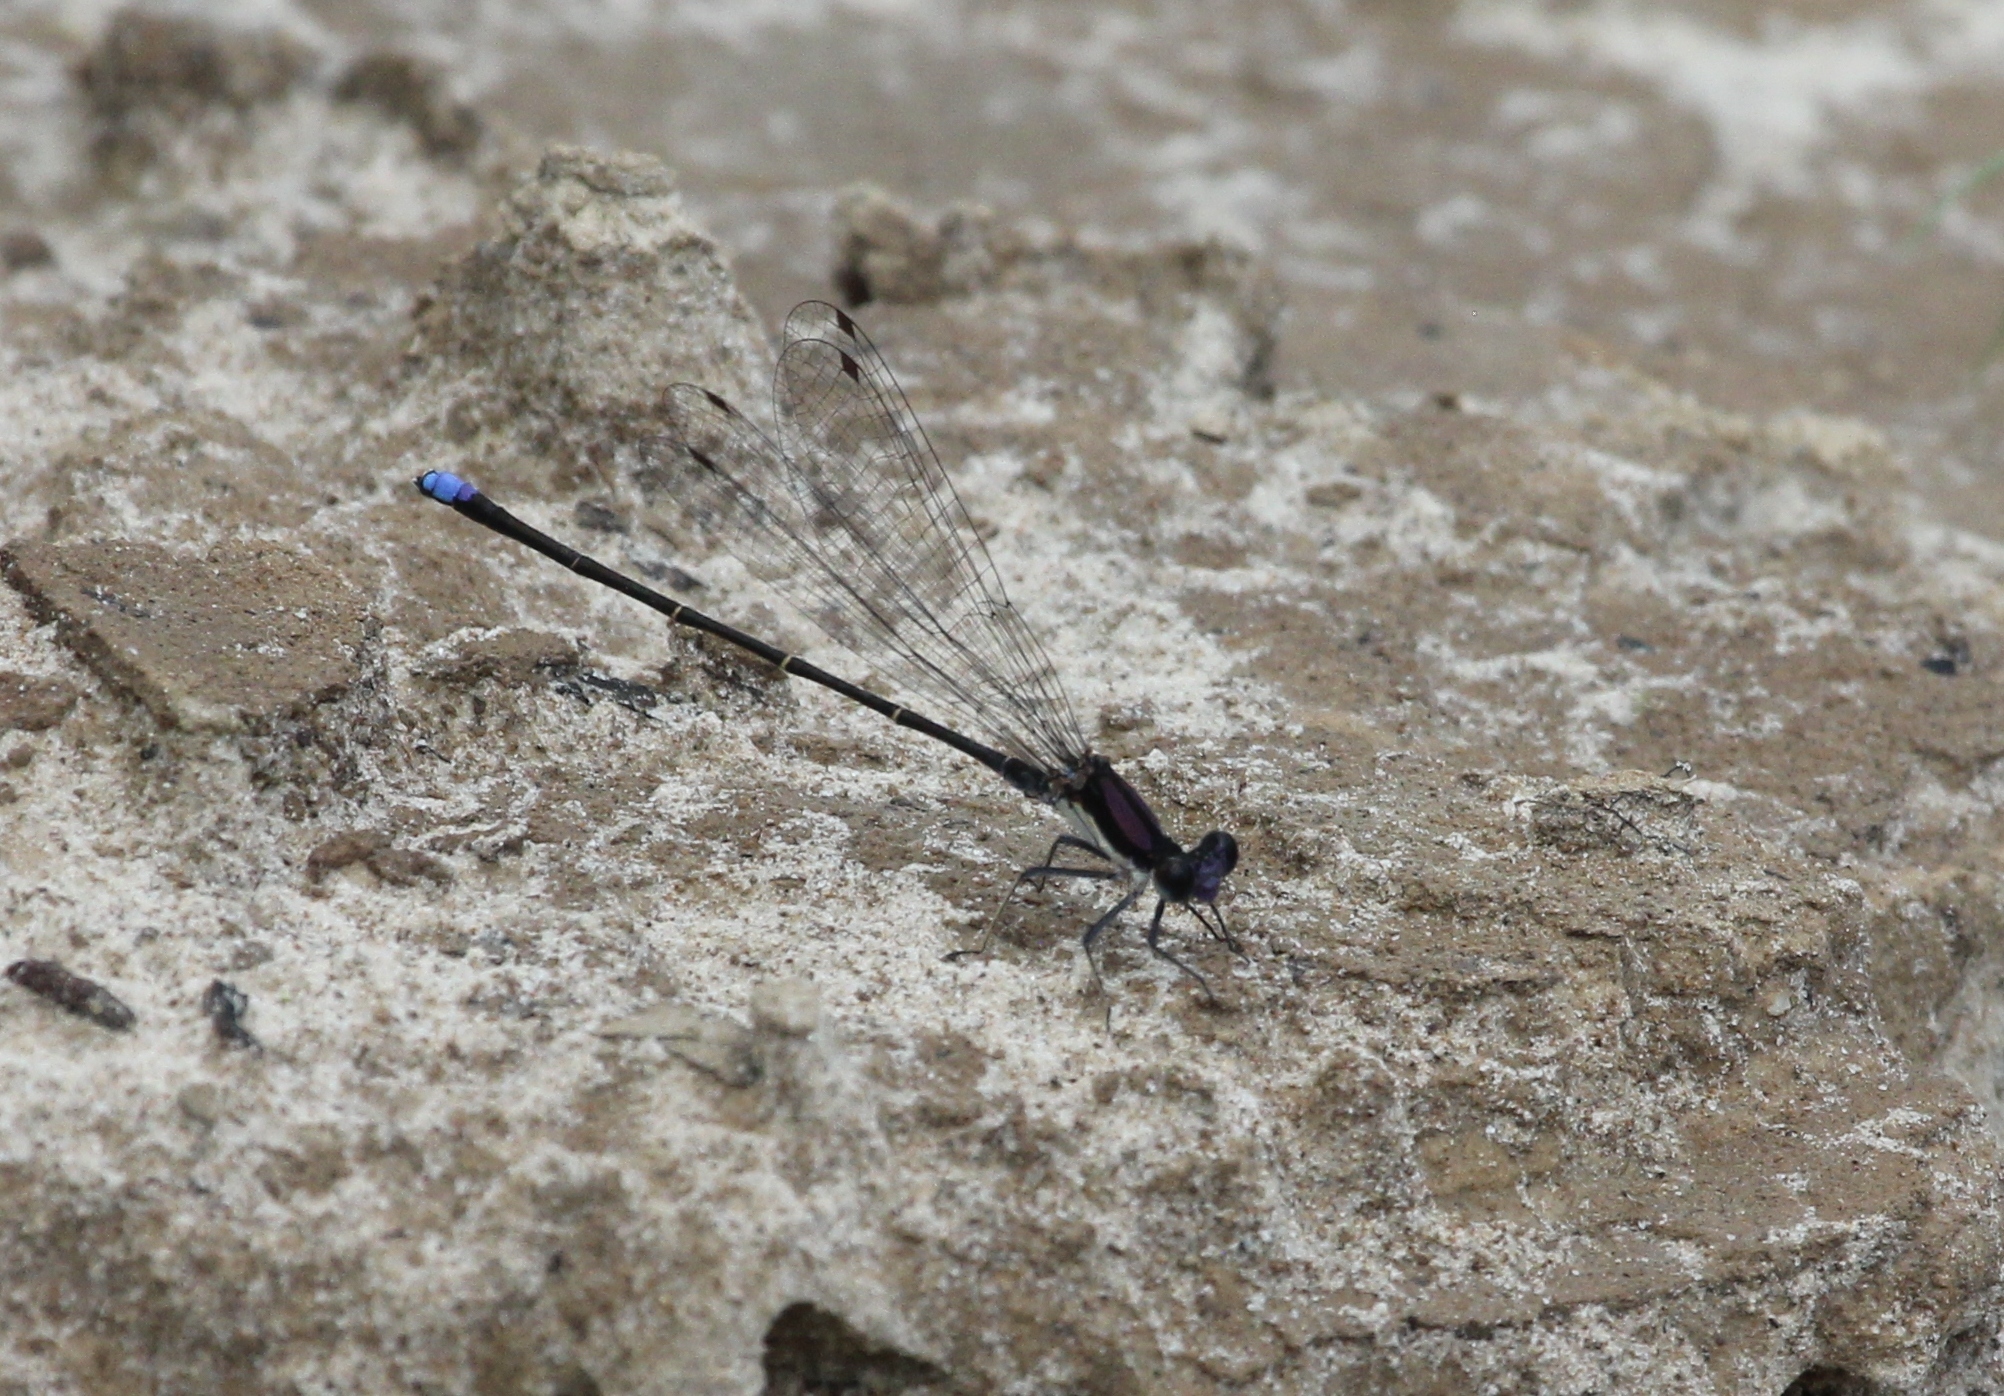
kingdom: Animalia
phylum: Arthropoda
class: Insecta
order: Odonata
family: Coenagrionidae
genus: Argia
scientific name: Argia tibialis
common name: Blue-tipped dancer
